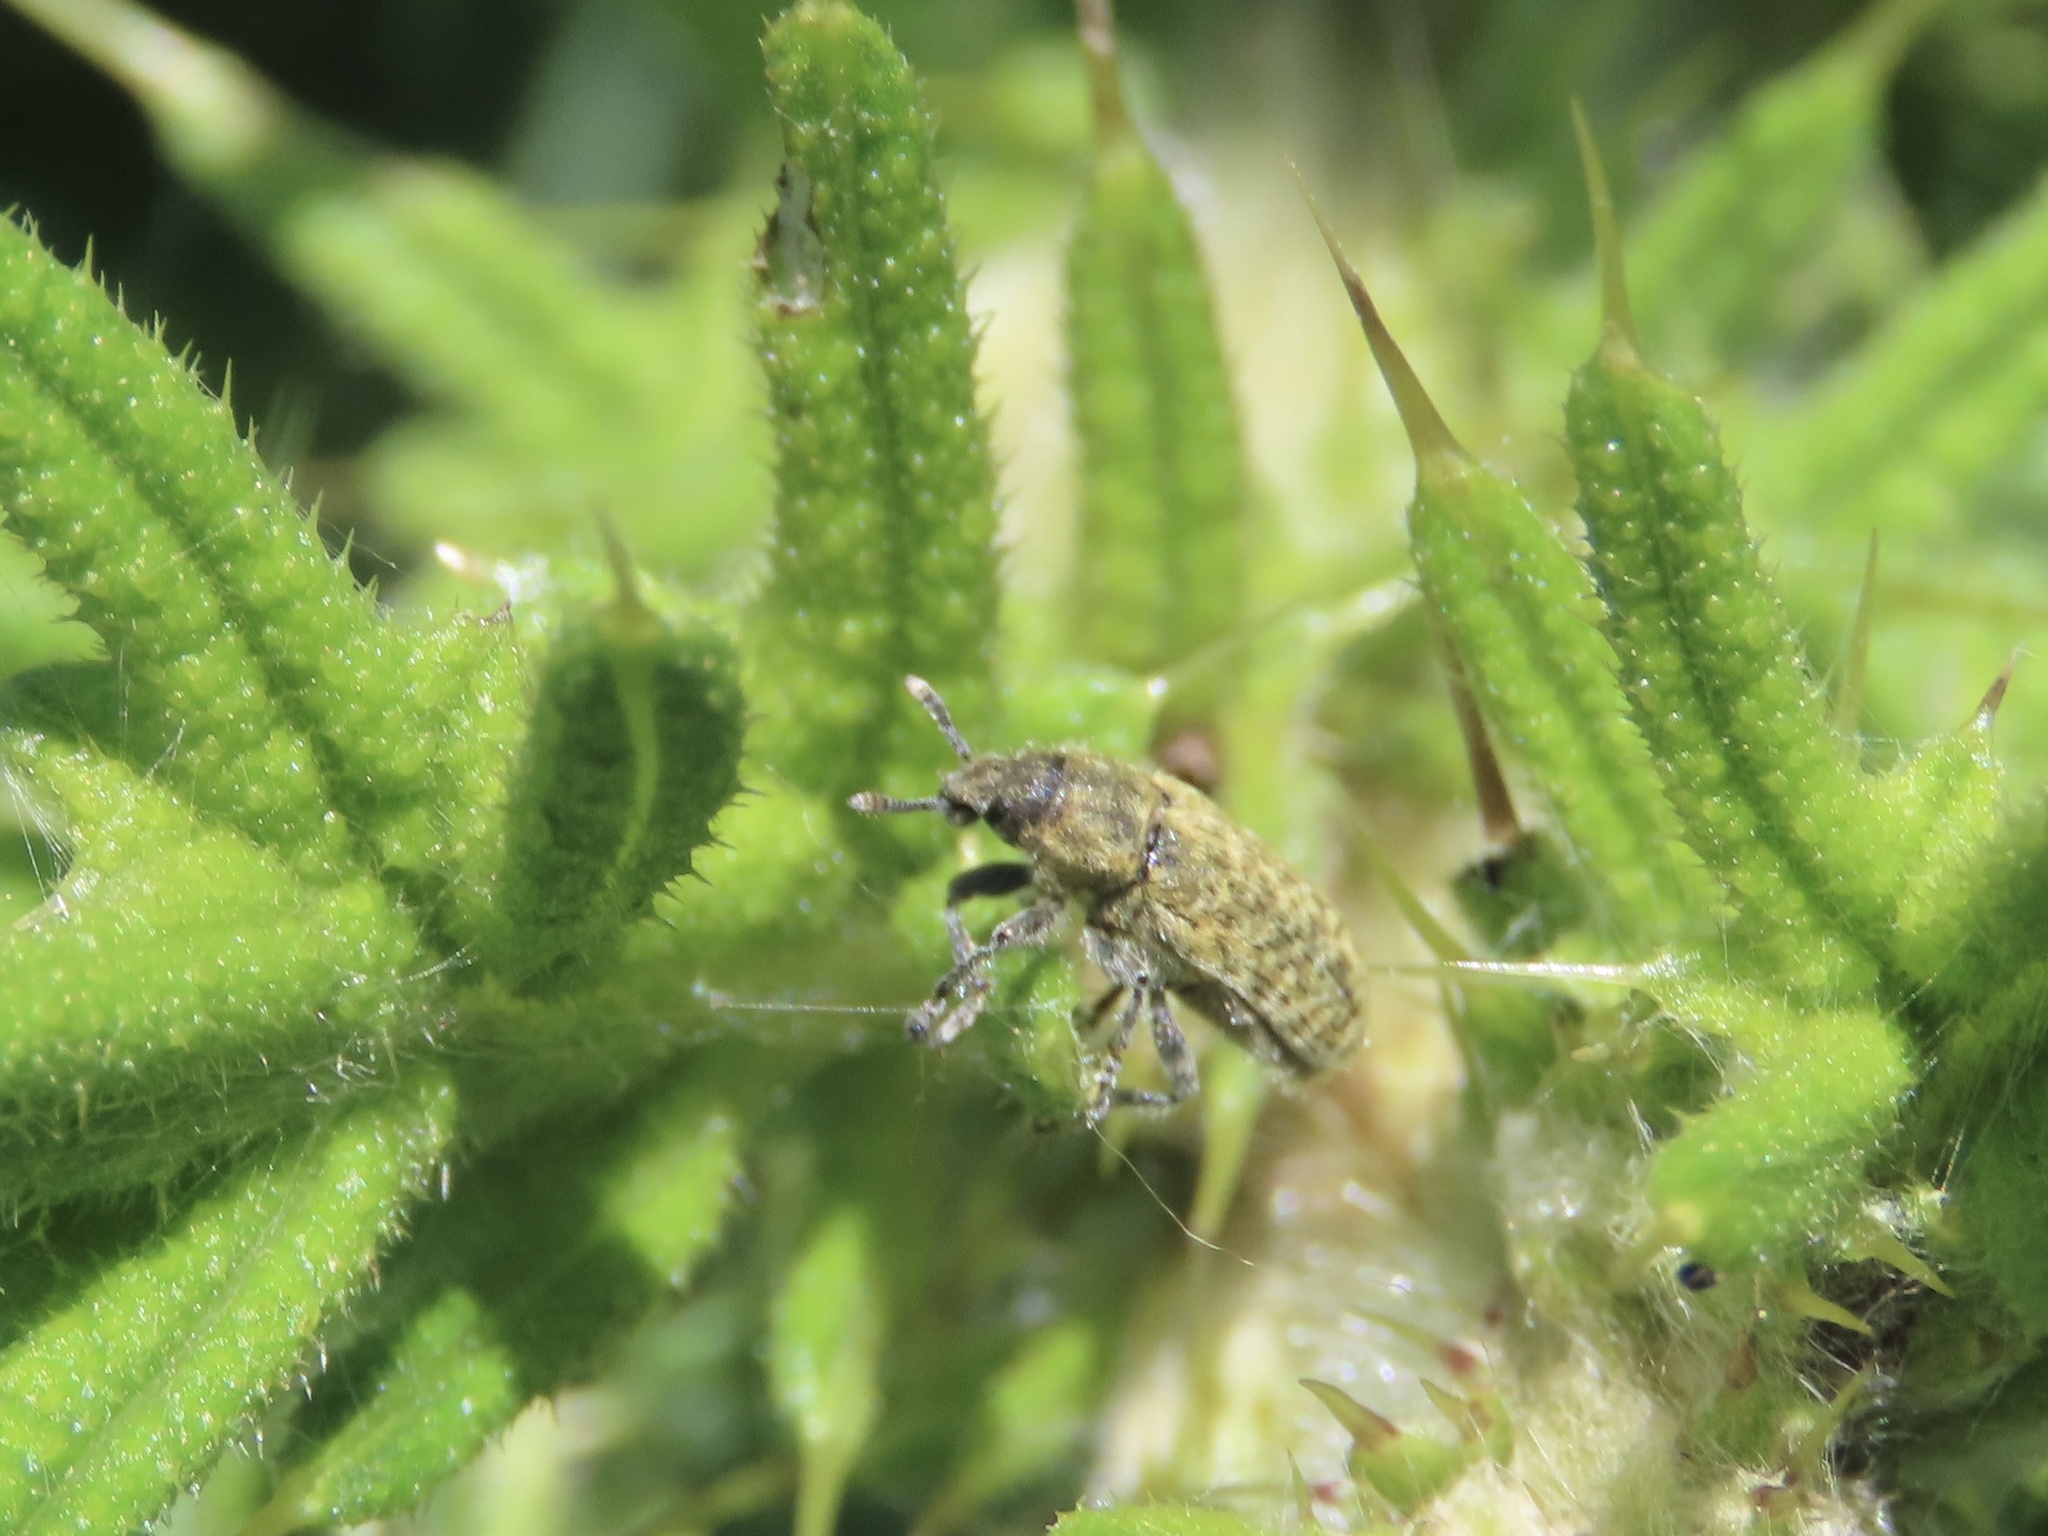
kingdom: Animalia
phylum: Arthropoda
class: Insecta
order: Coleoptera
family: Curculionidae
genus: Rhinocyllus
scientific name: Rhinocyllus conicus
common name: Weevil
